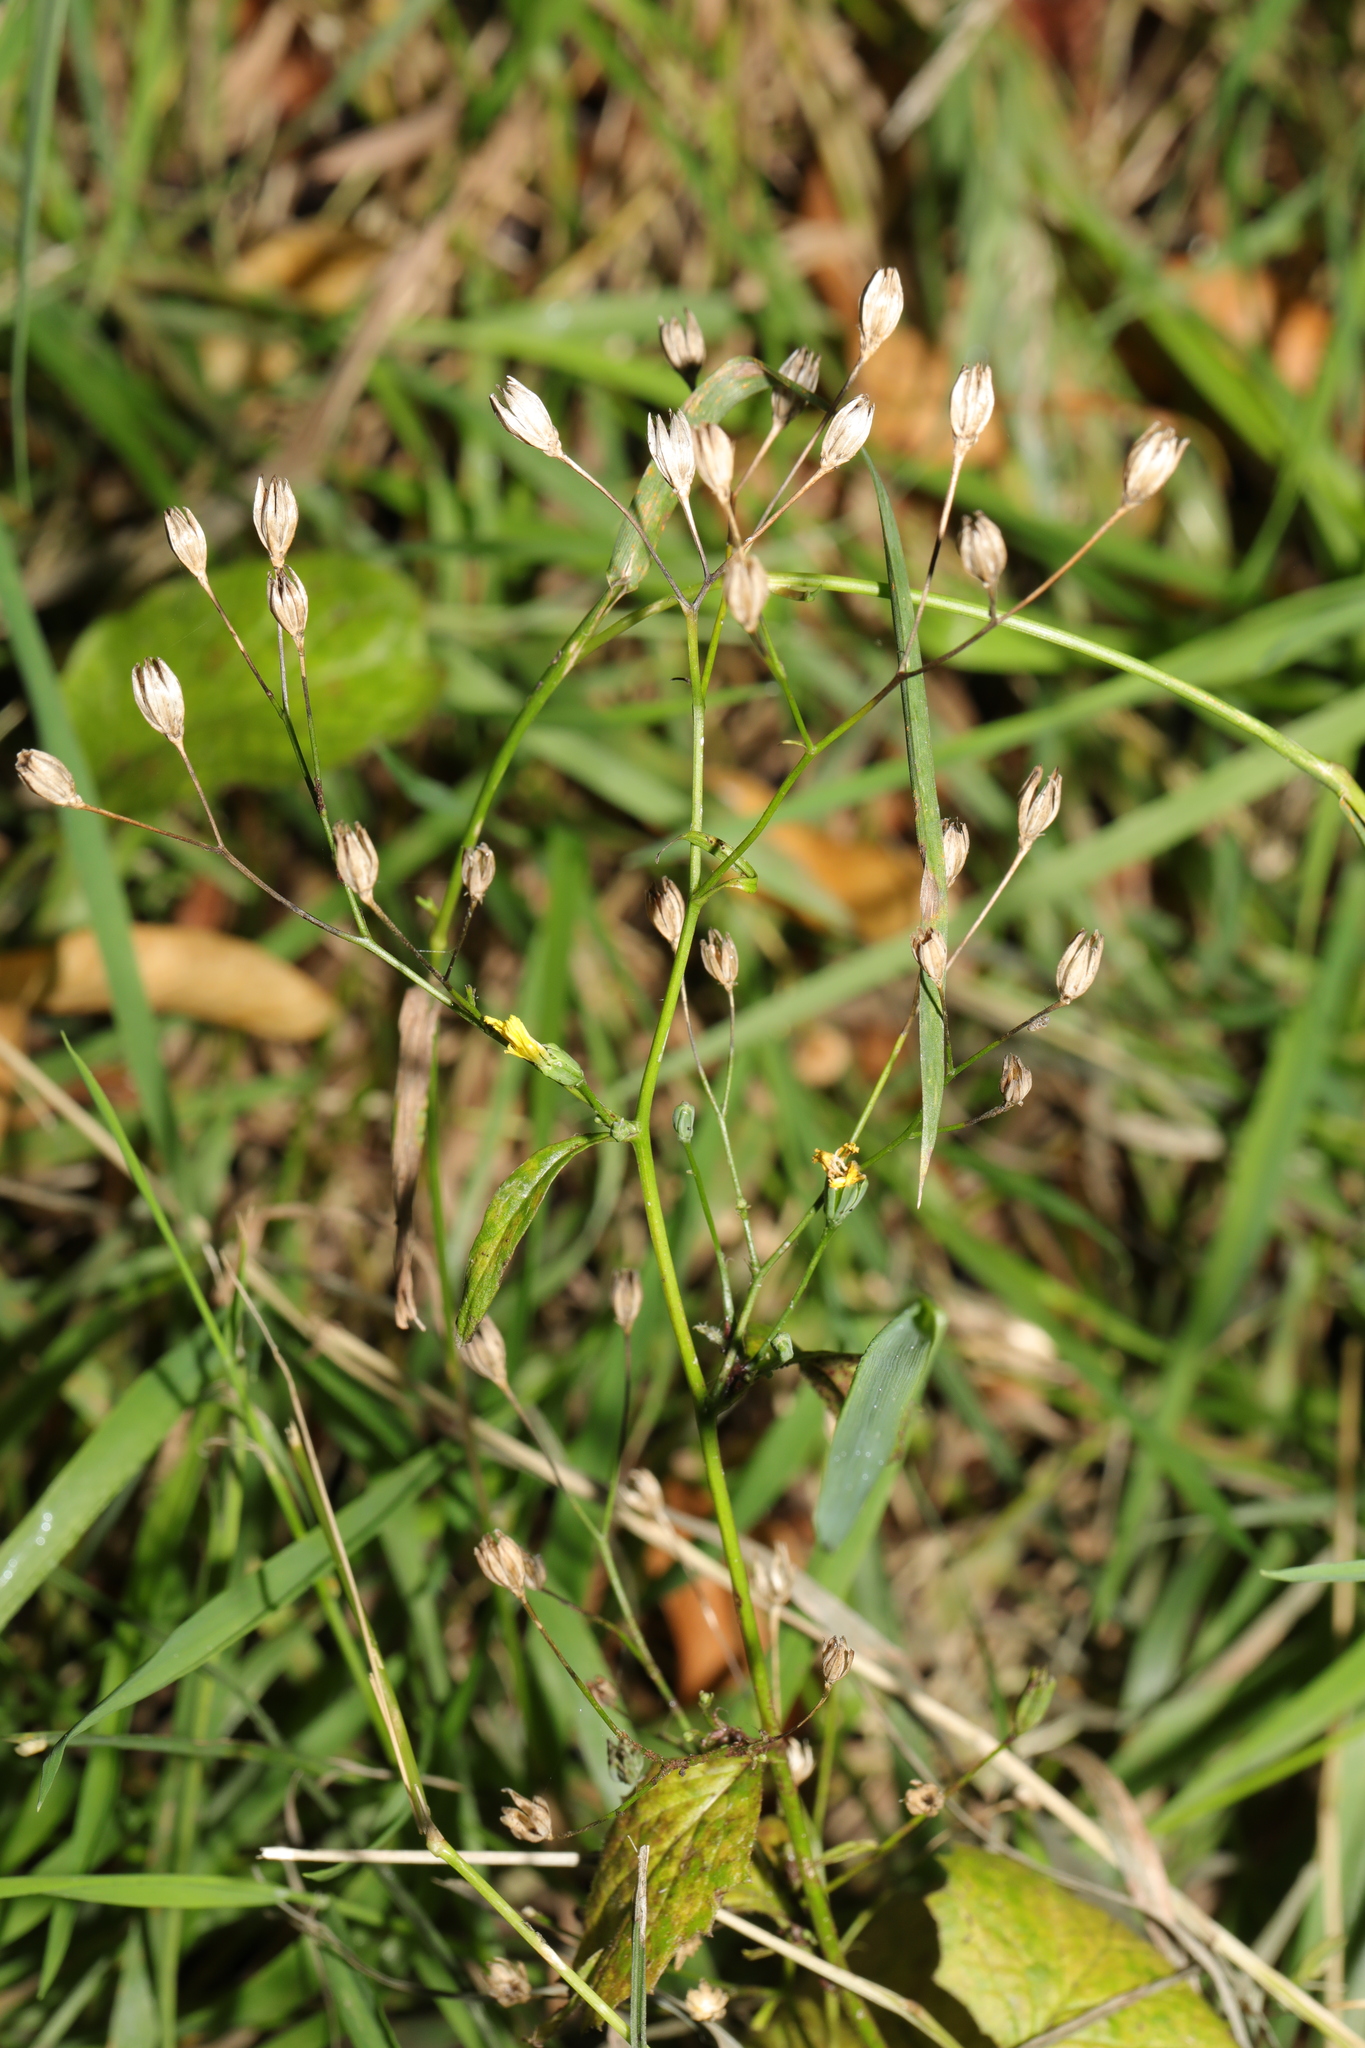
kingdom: Plantae
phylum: Tracheophyta
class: Magnoliopsida
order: Asterales
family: Asteraceae
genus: Lapsana
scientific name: Lapsana communis
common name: Nipplewort
